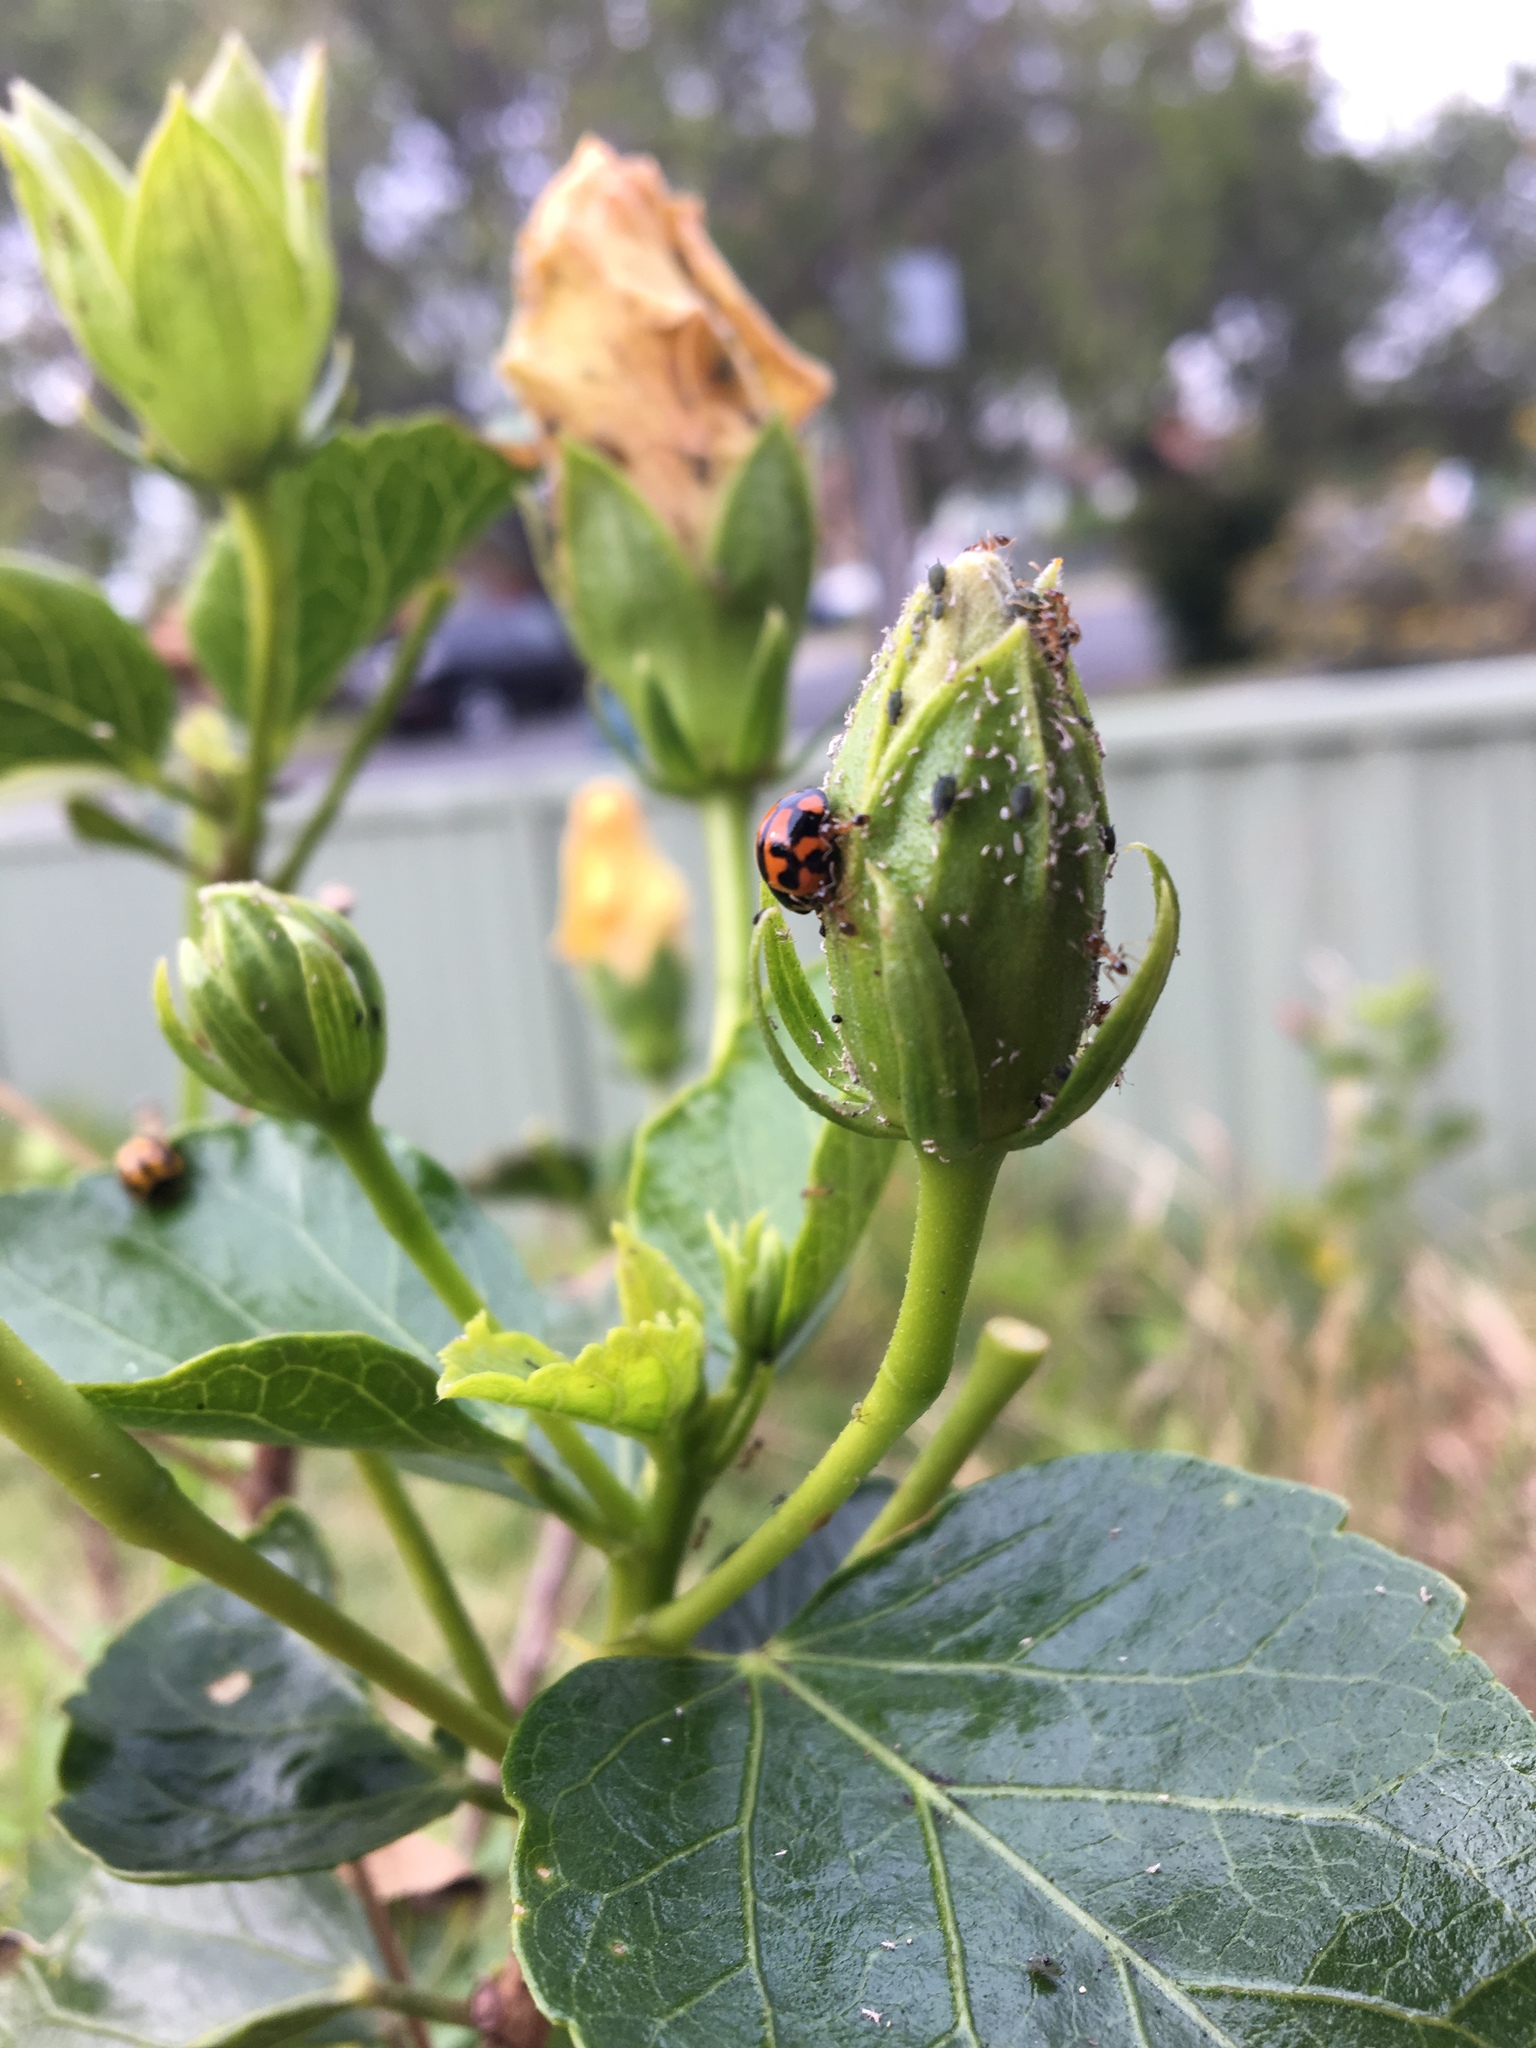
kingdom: Animalia
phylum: Arthropoda
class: Insecta
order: Coleoptera
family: Coccinellidae
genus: Coelophora
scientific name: Coelophora inaequalis
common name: Common australian lady beetle
